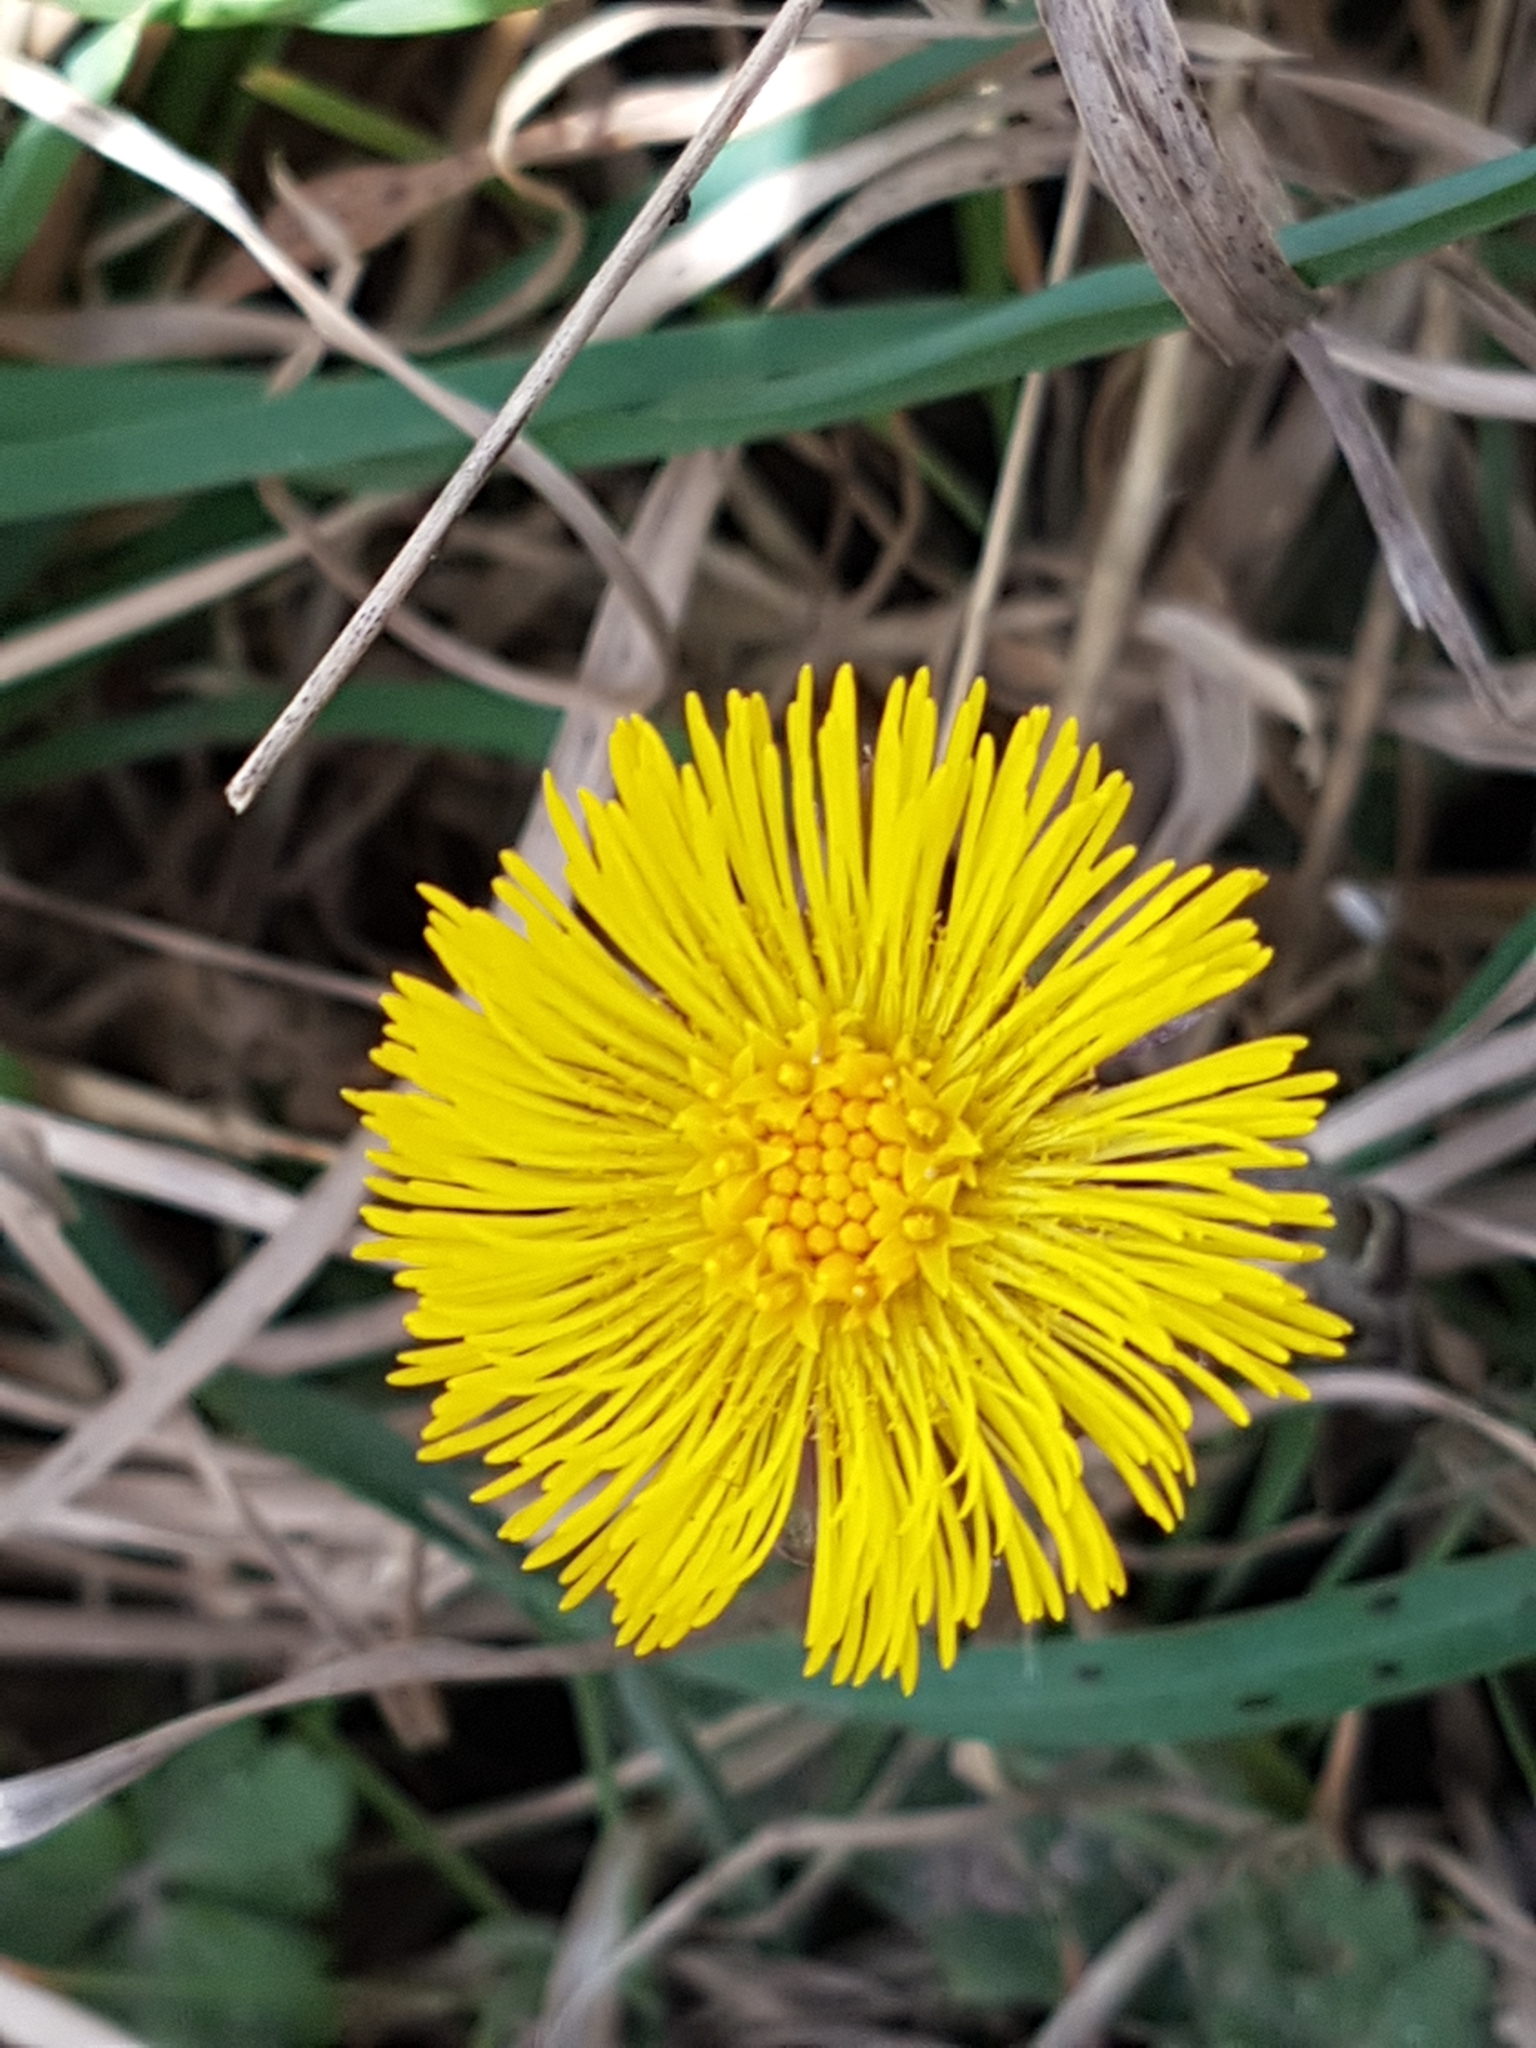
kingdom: Plantae
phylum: Tracheophyta
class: Magnoliopsida
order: Asterales
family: Asteraceae
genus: Tussilago
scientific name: Tussilago farfara
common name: Coltsfoot
